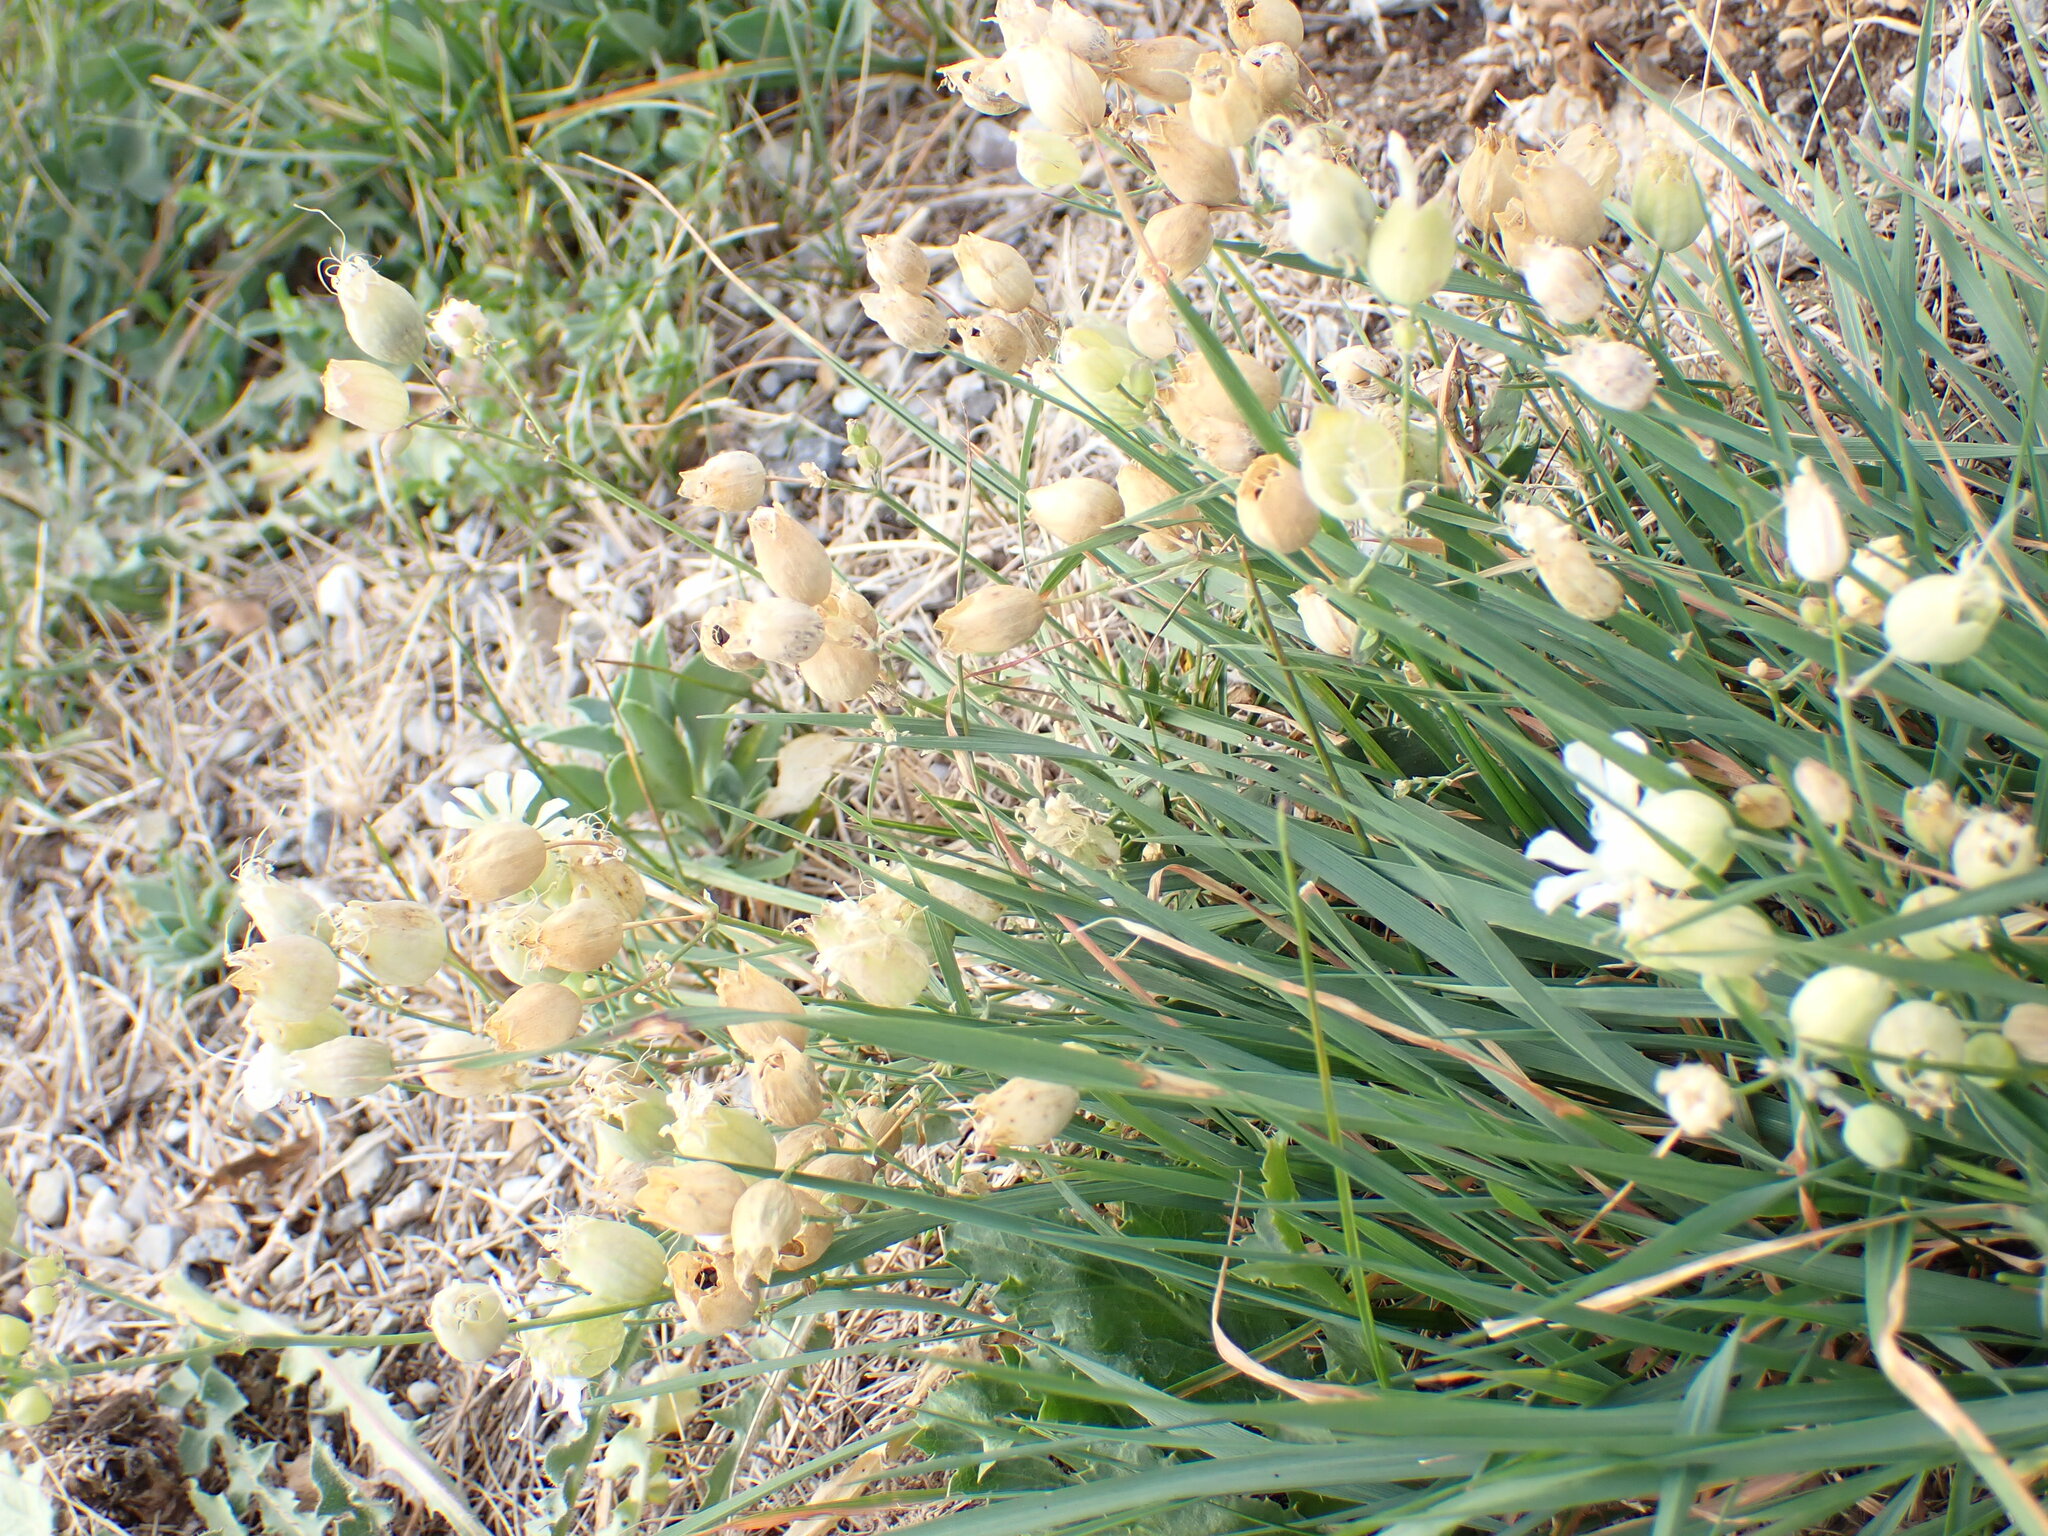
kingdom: Plantae
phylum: Tracheophyta
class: Magnoliopsida
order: Caryophyllales
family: Caryophyllaceae
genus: Silene
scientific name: Silene vulgaris
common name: Bladder campion
